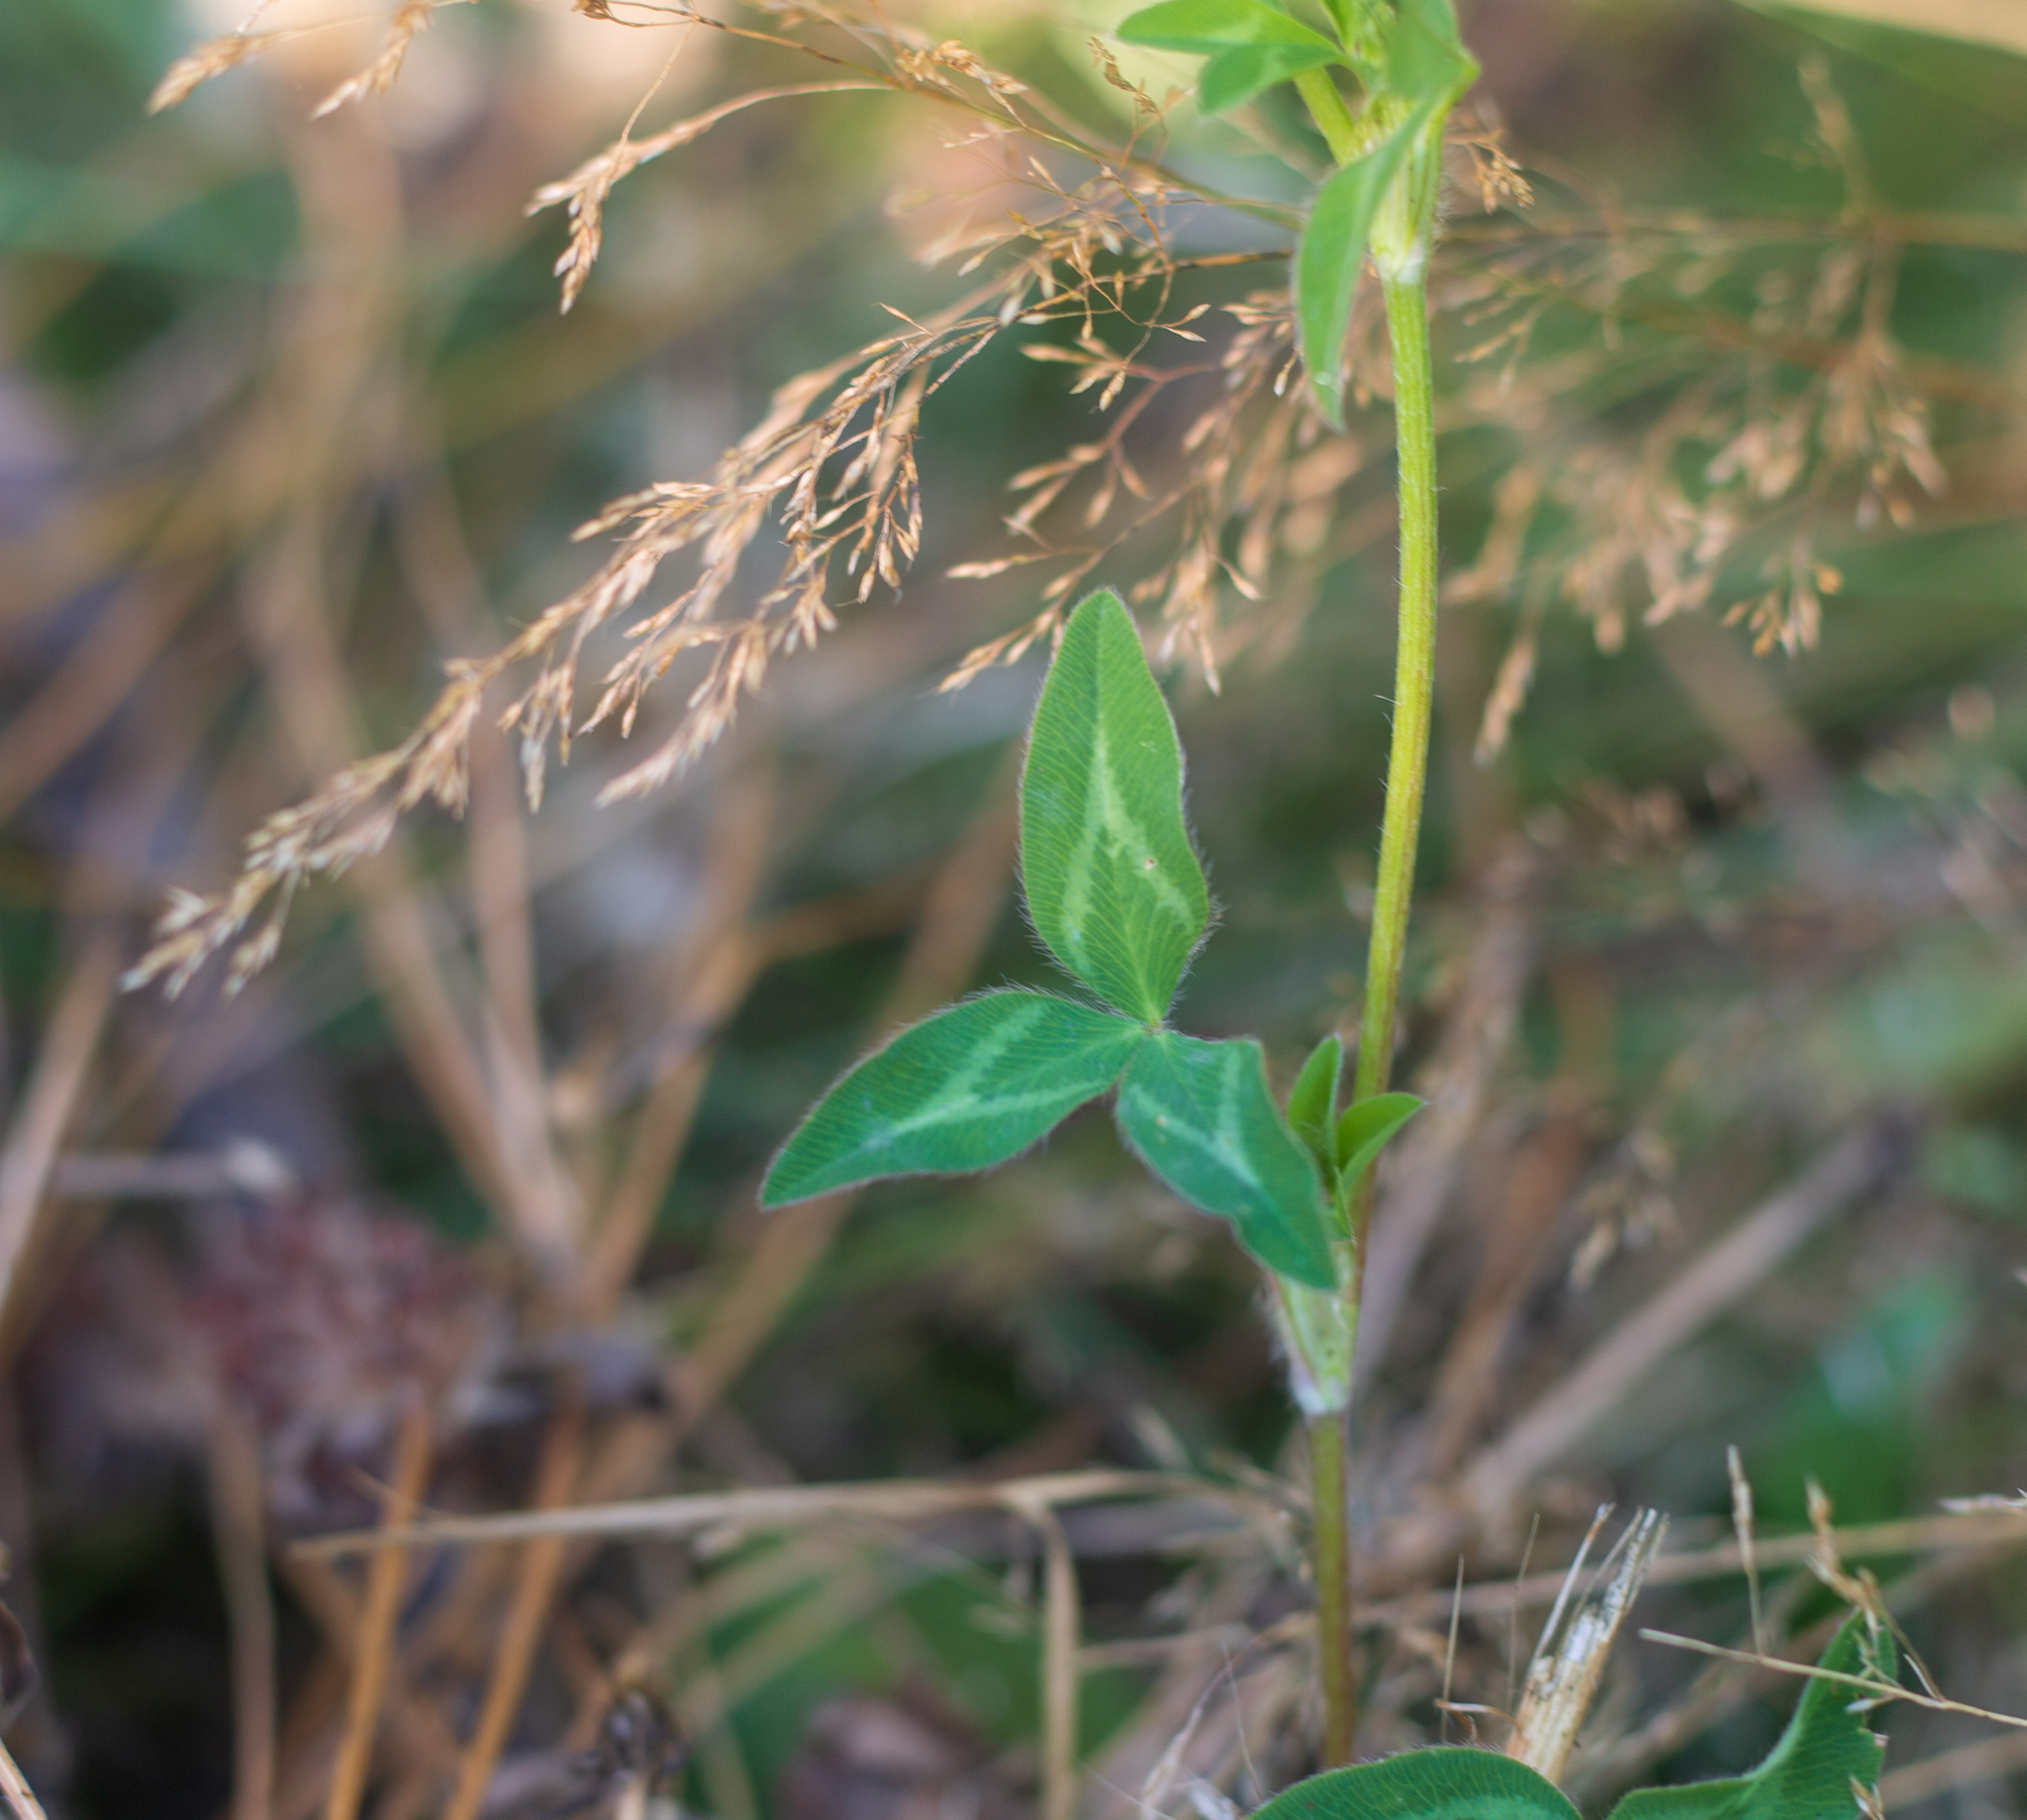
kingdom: Plantae
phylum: Tracheophyta
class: Magnoliopsida
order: Fabales
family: Fabaceae
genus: Trifolium
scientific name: Trifolium pratense
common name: Red clover
